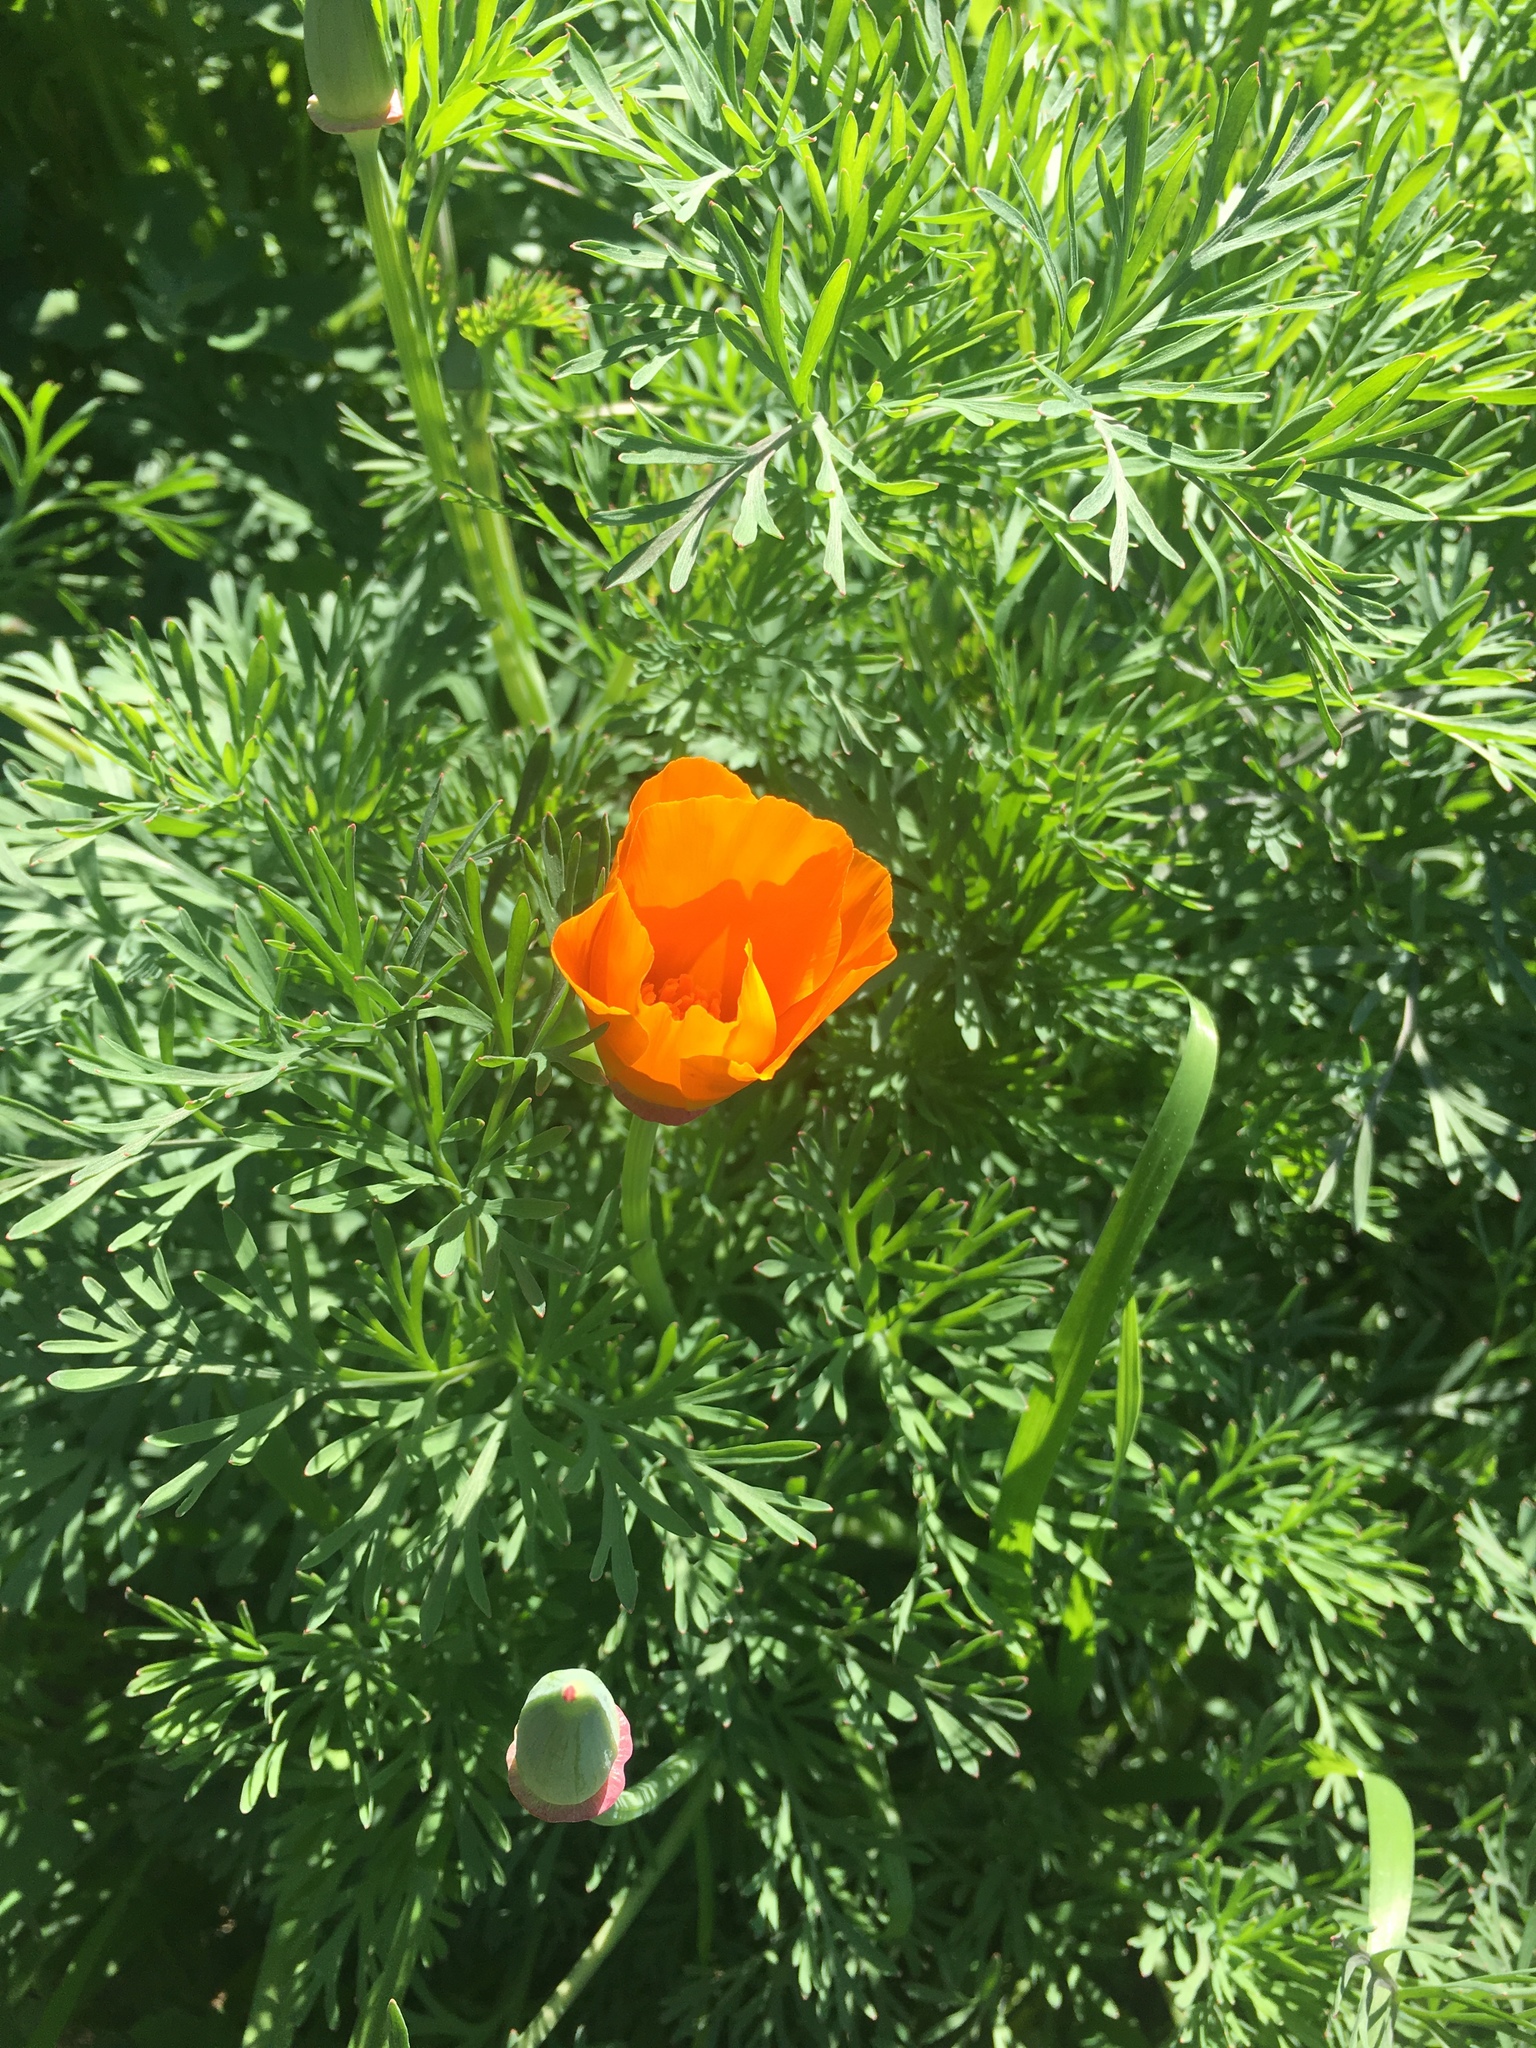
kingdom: Plantae
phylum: Tracheophyta
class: Magnoliopsida
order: Ranunculales
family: Papaveraceae
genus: Eschscholzia
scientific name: Eschscholzia californica
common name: California poppy
